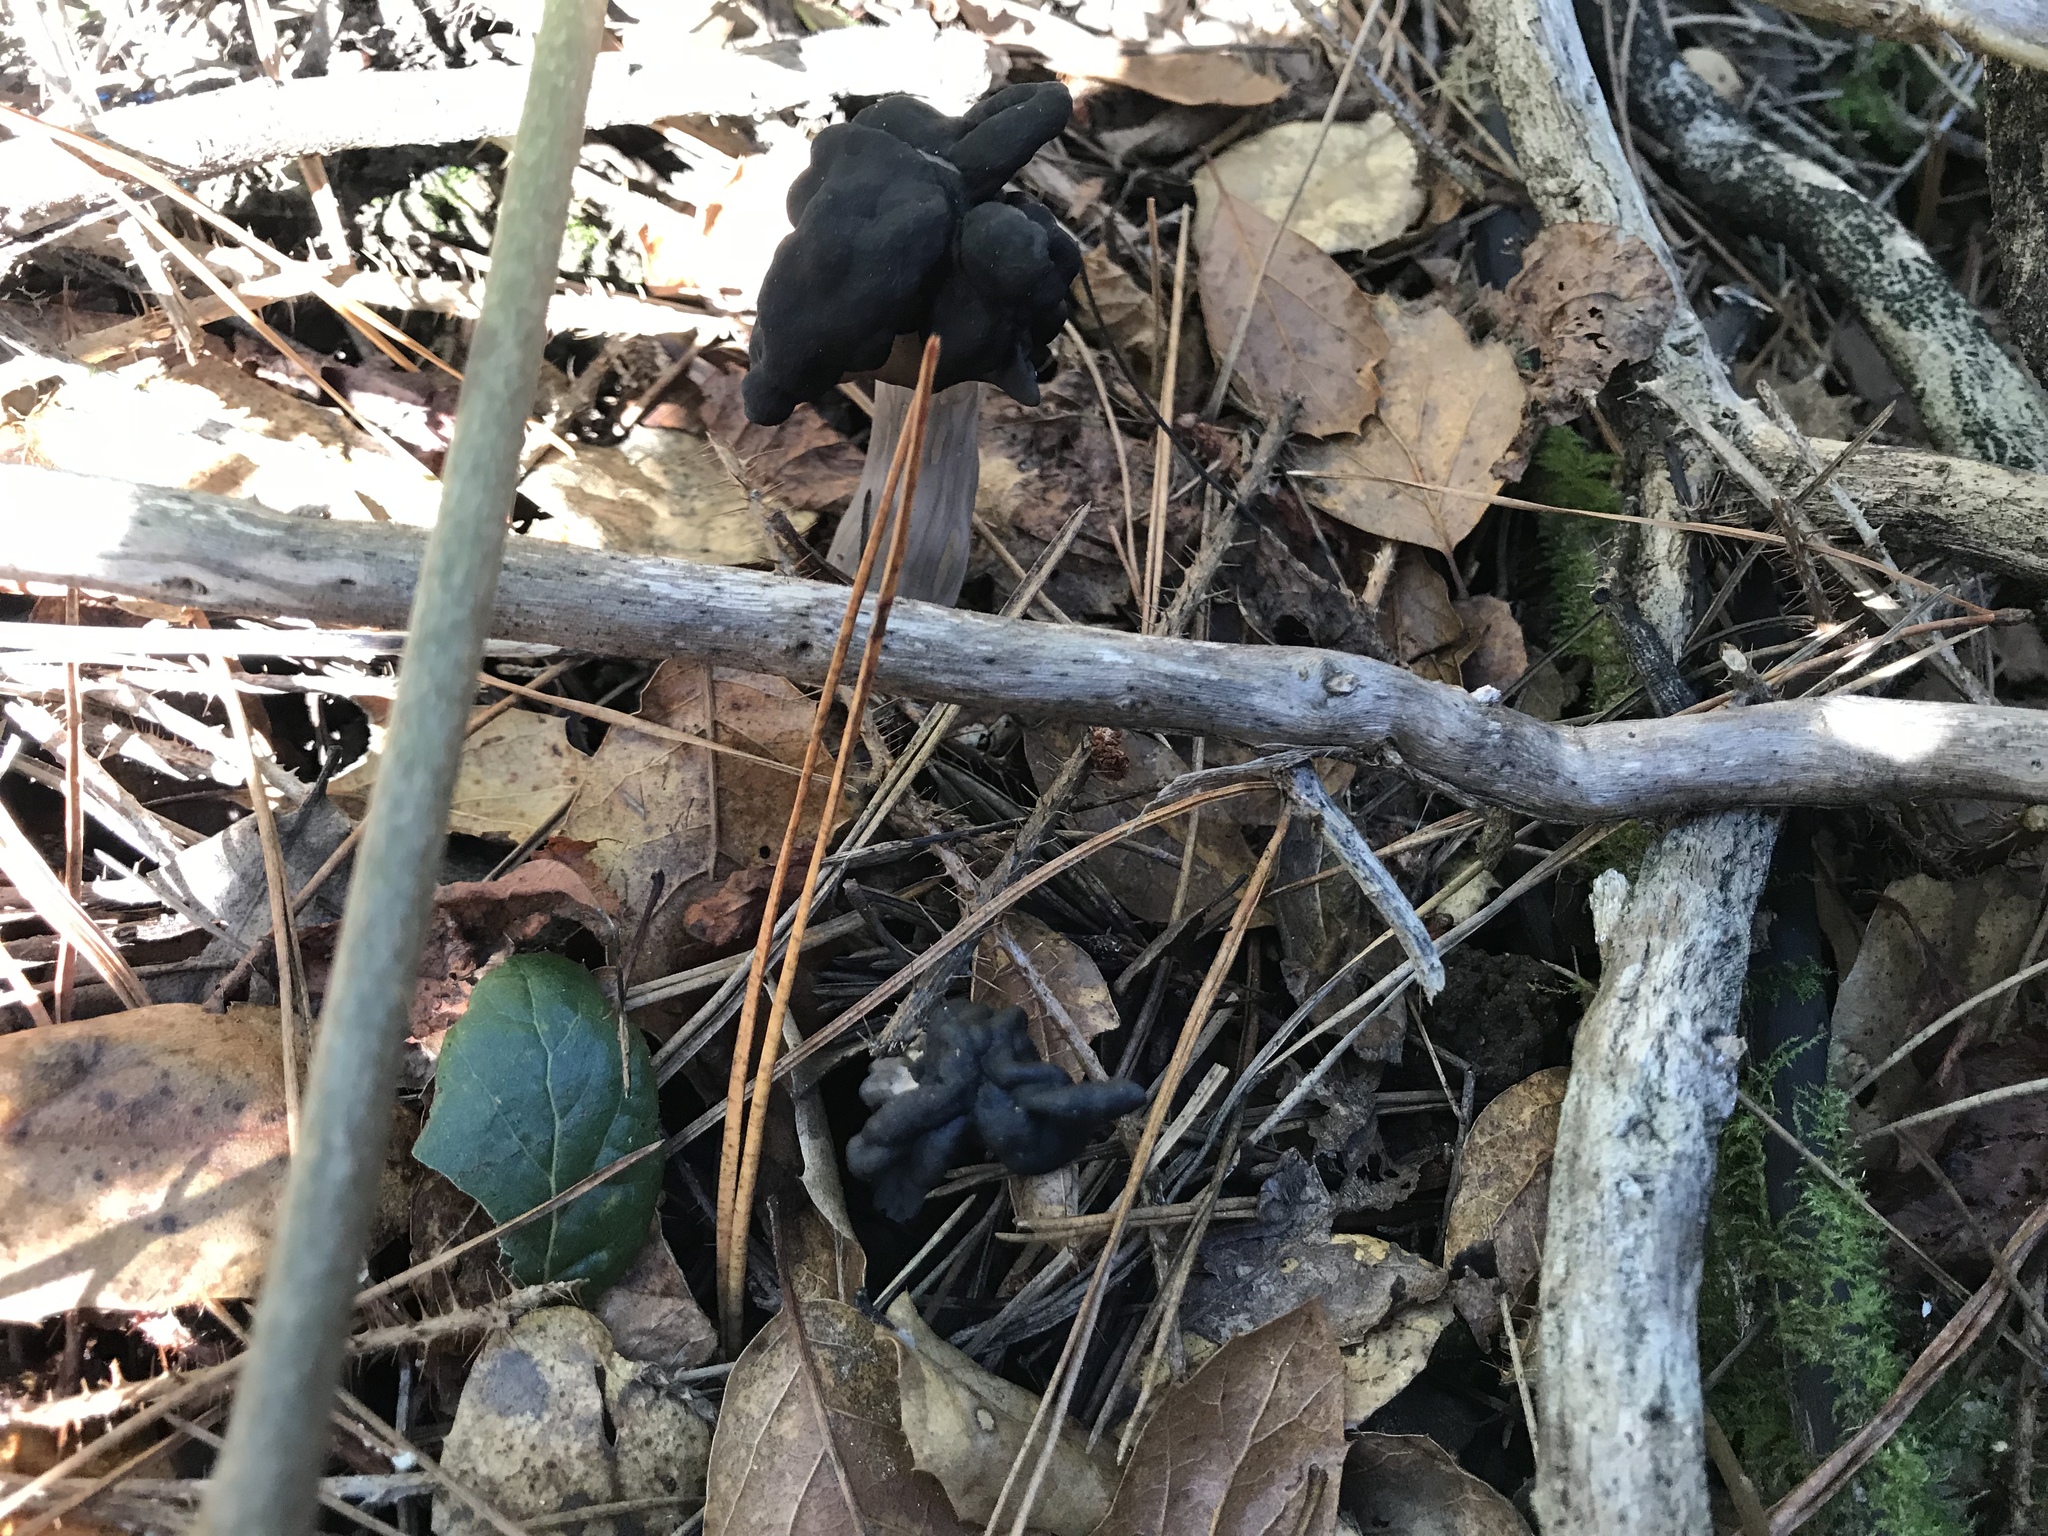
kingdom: Fungi
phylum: Ascomycota
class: Pezizomycetes
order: Pezizales
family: Helvellaceae
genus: Helvella
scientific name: Helvella dryophila
